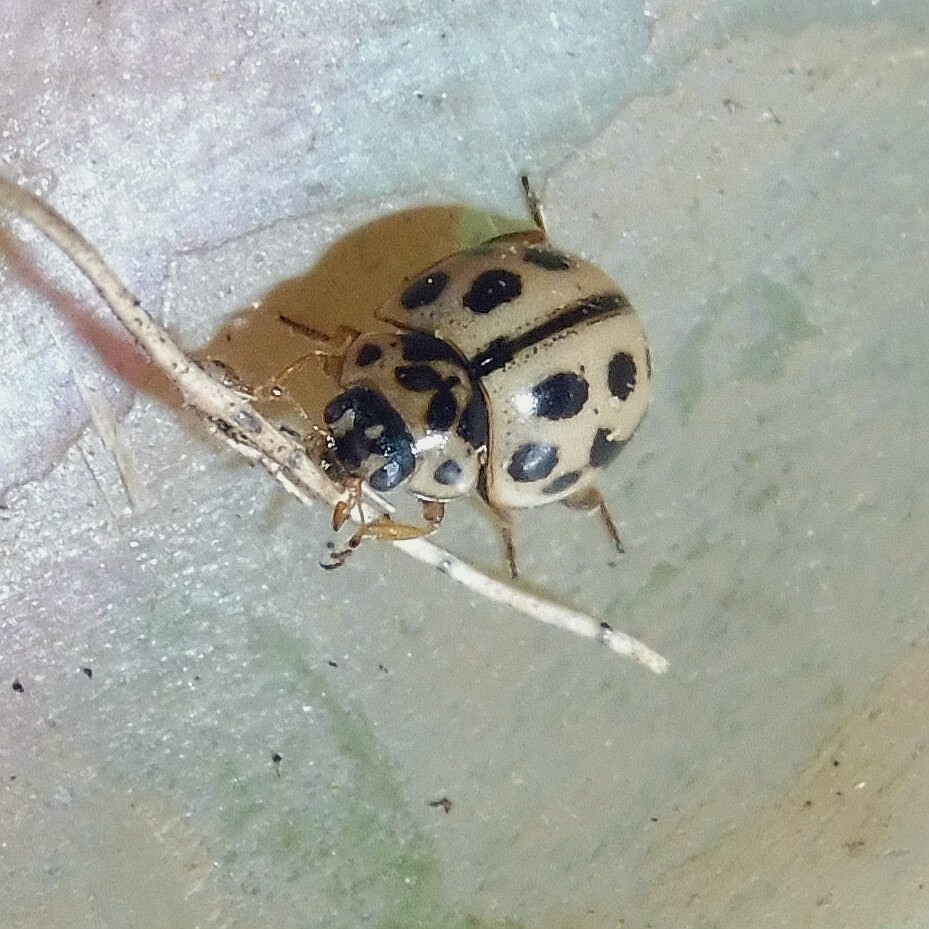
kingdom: Animalia
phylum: Arthropoda
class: Insecta
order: Coleoptera
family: Coccinellidae
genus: Tytthaspis
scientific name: Tytthaspis sedecimpunctata
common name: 16-spot ladybird
